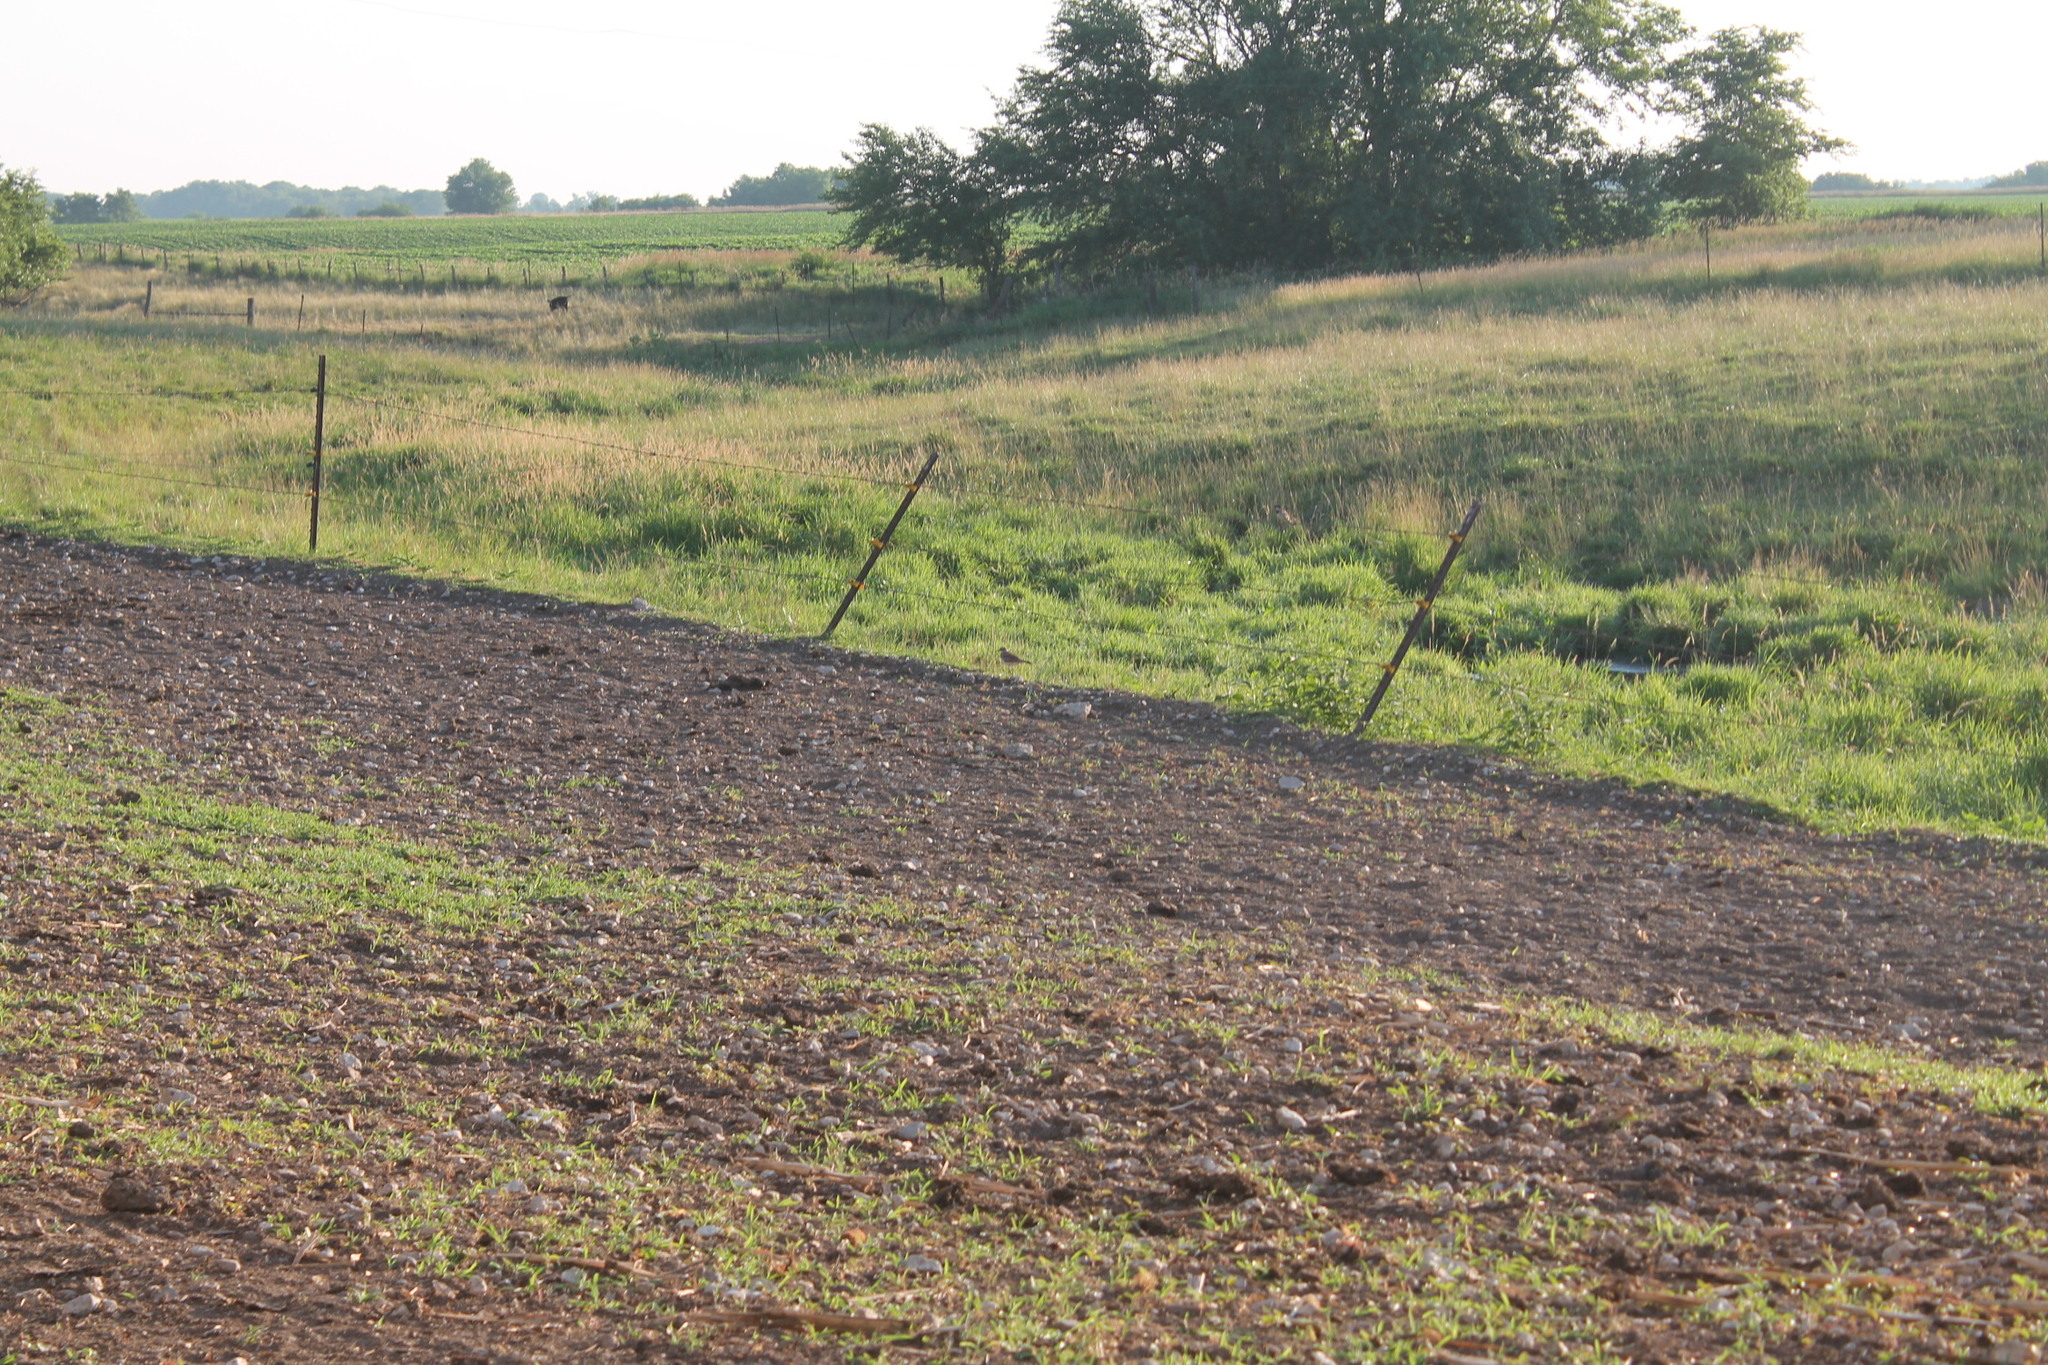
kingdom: Animalia
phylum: Chordata
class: Aves
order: Charadriiformes
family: Charadriidae
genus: Charadrius
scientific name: Charadrius vociferus
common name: Killdeer
